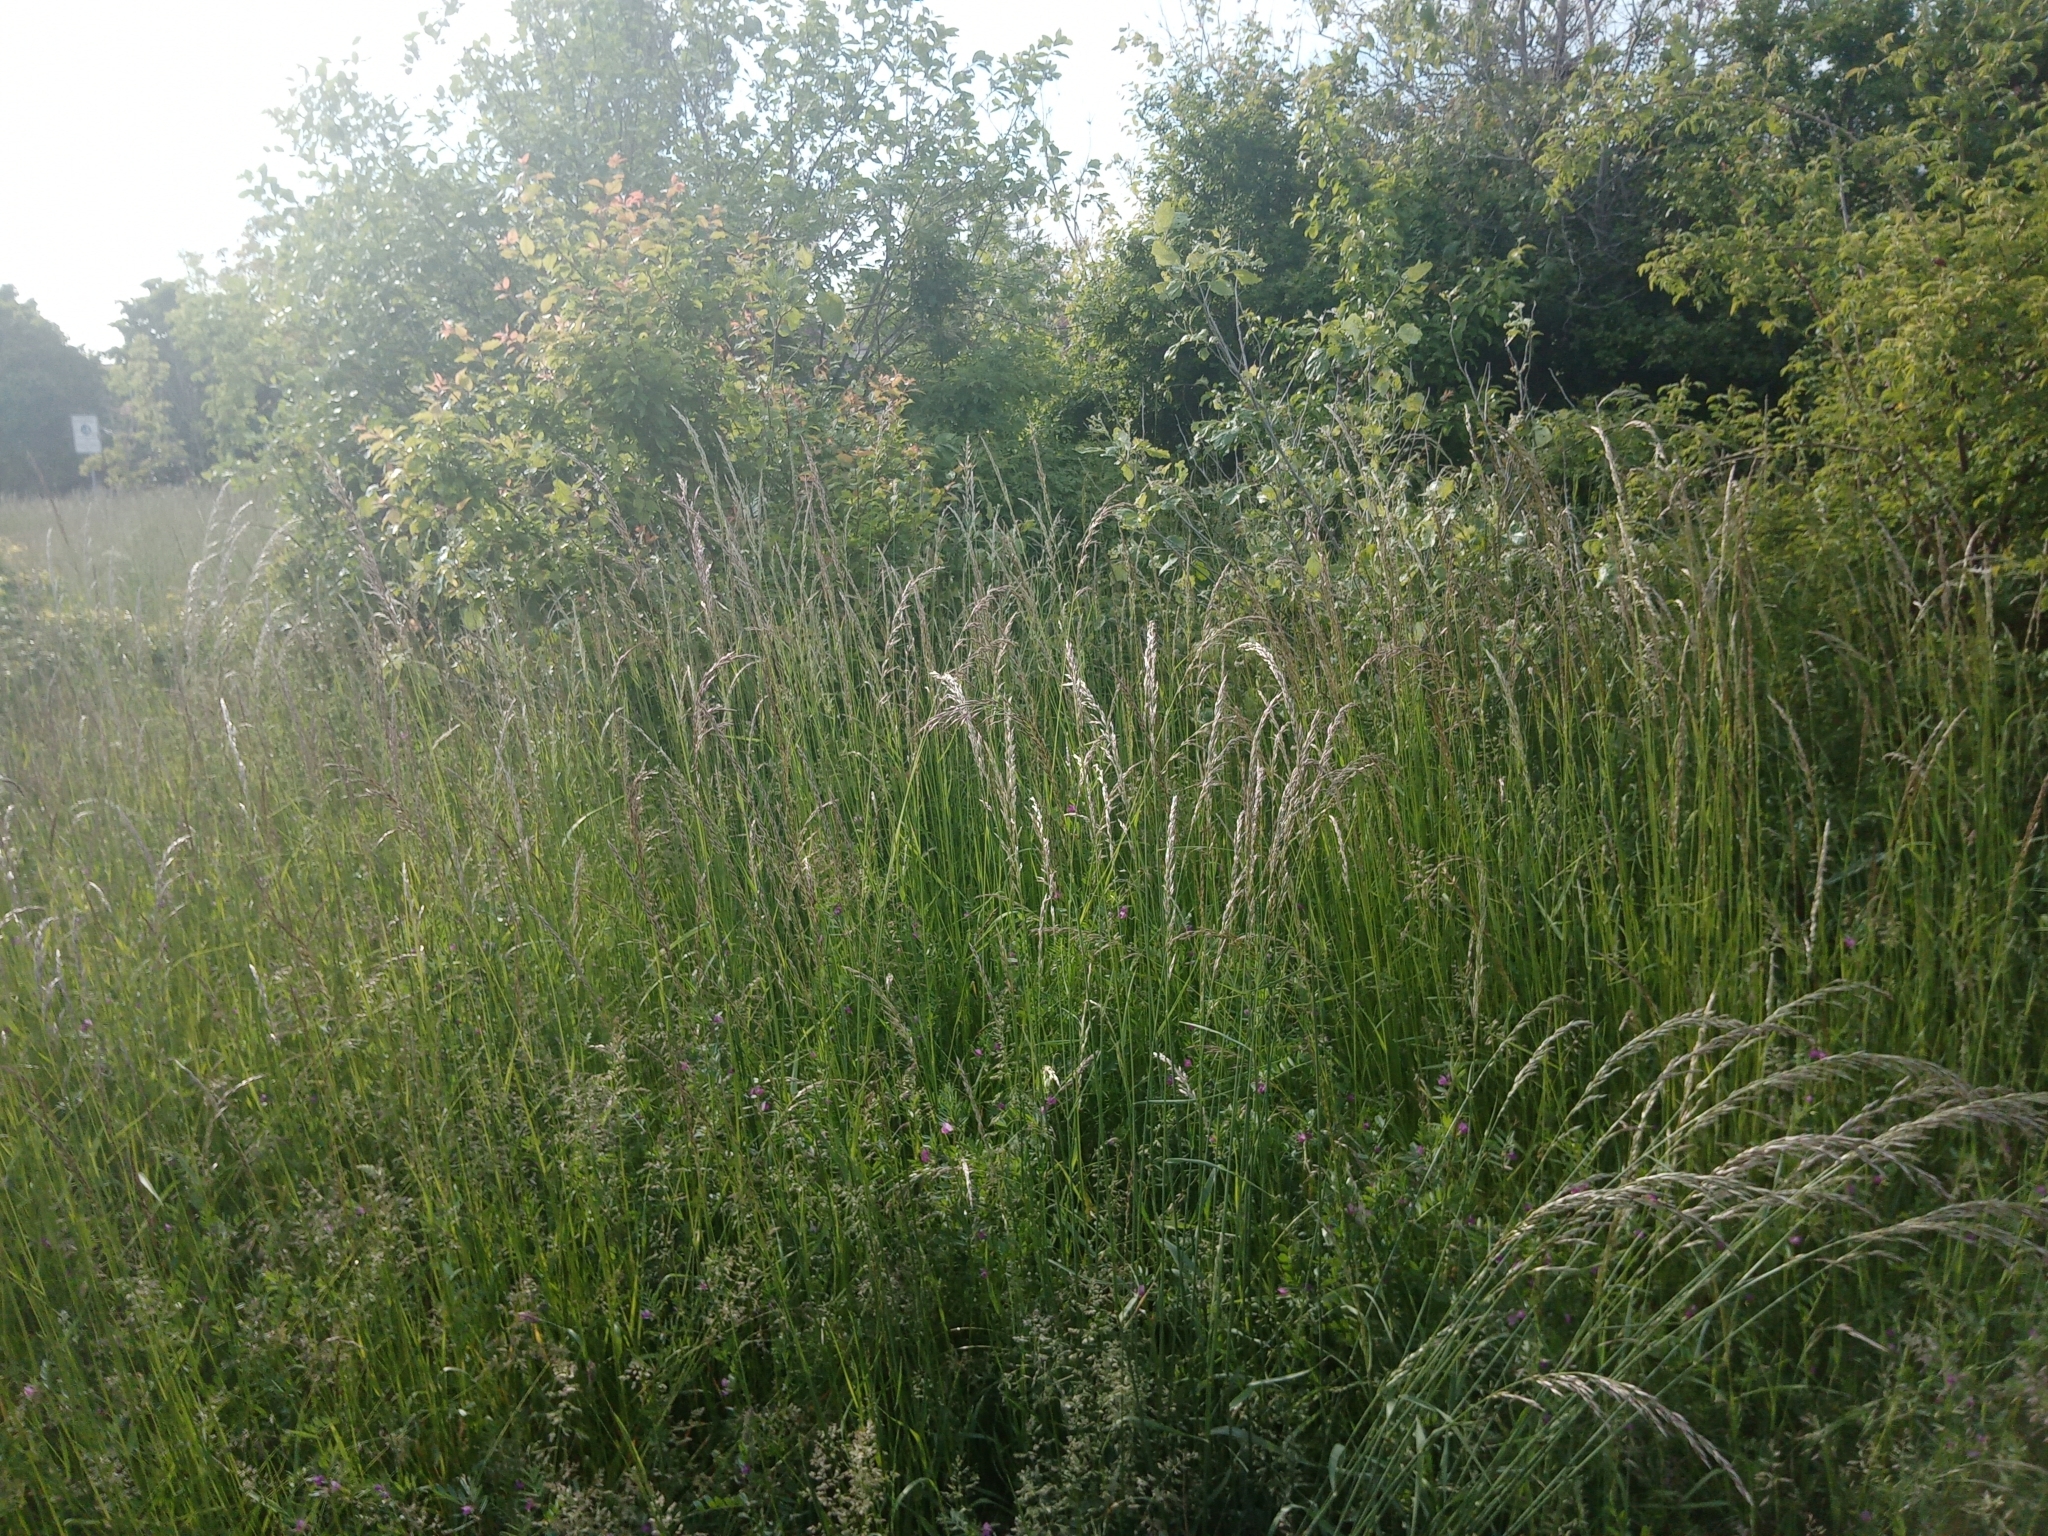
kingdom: Plantae
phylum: Tracheophyta
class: Liliopsida
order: Poales
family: Poaceae
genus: Arrhenatherum
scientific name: Arrhenatherum elatius
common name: Tall oatgrass
